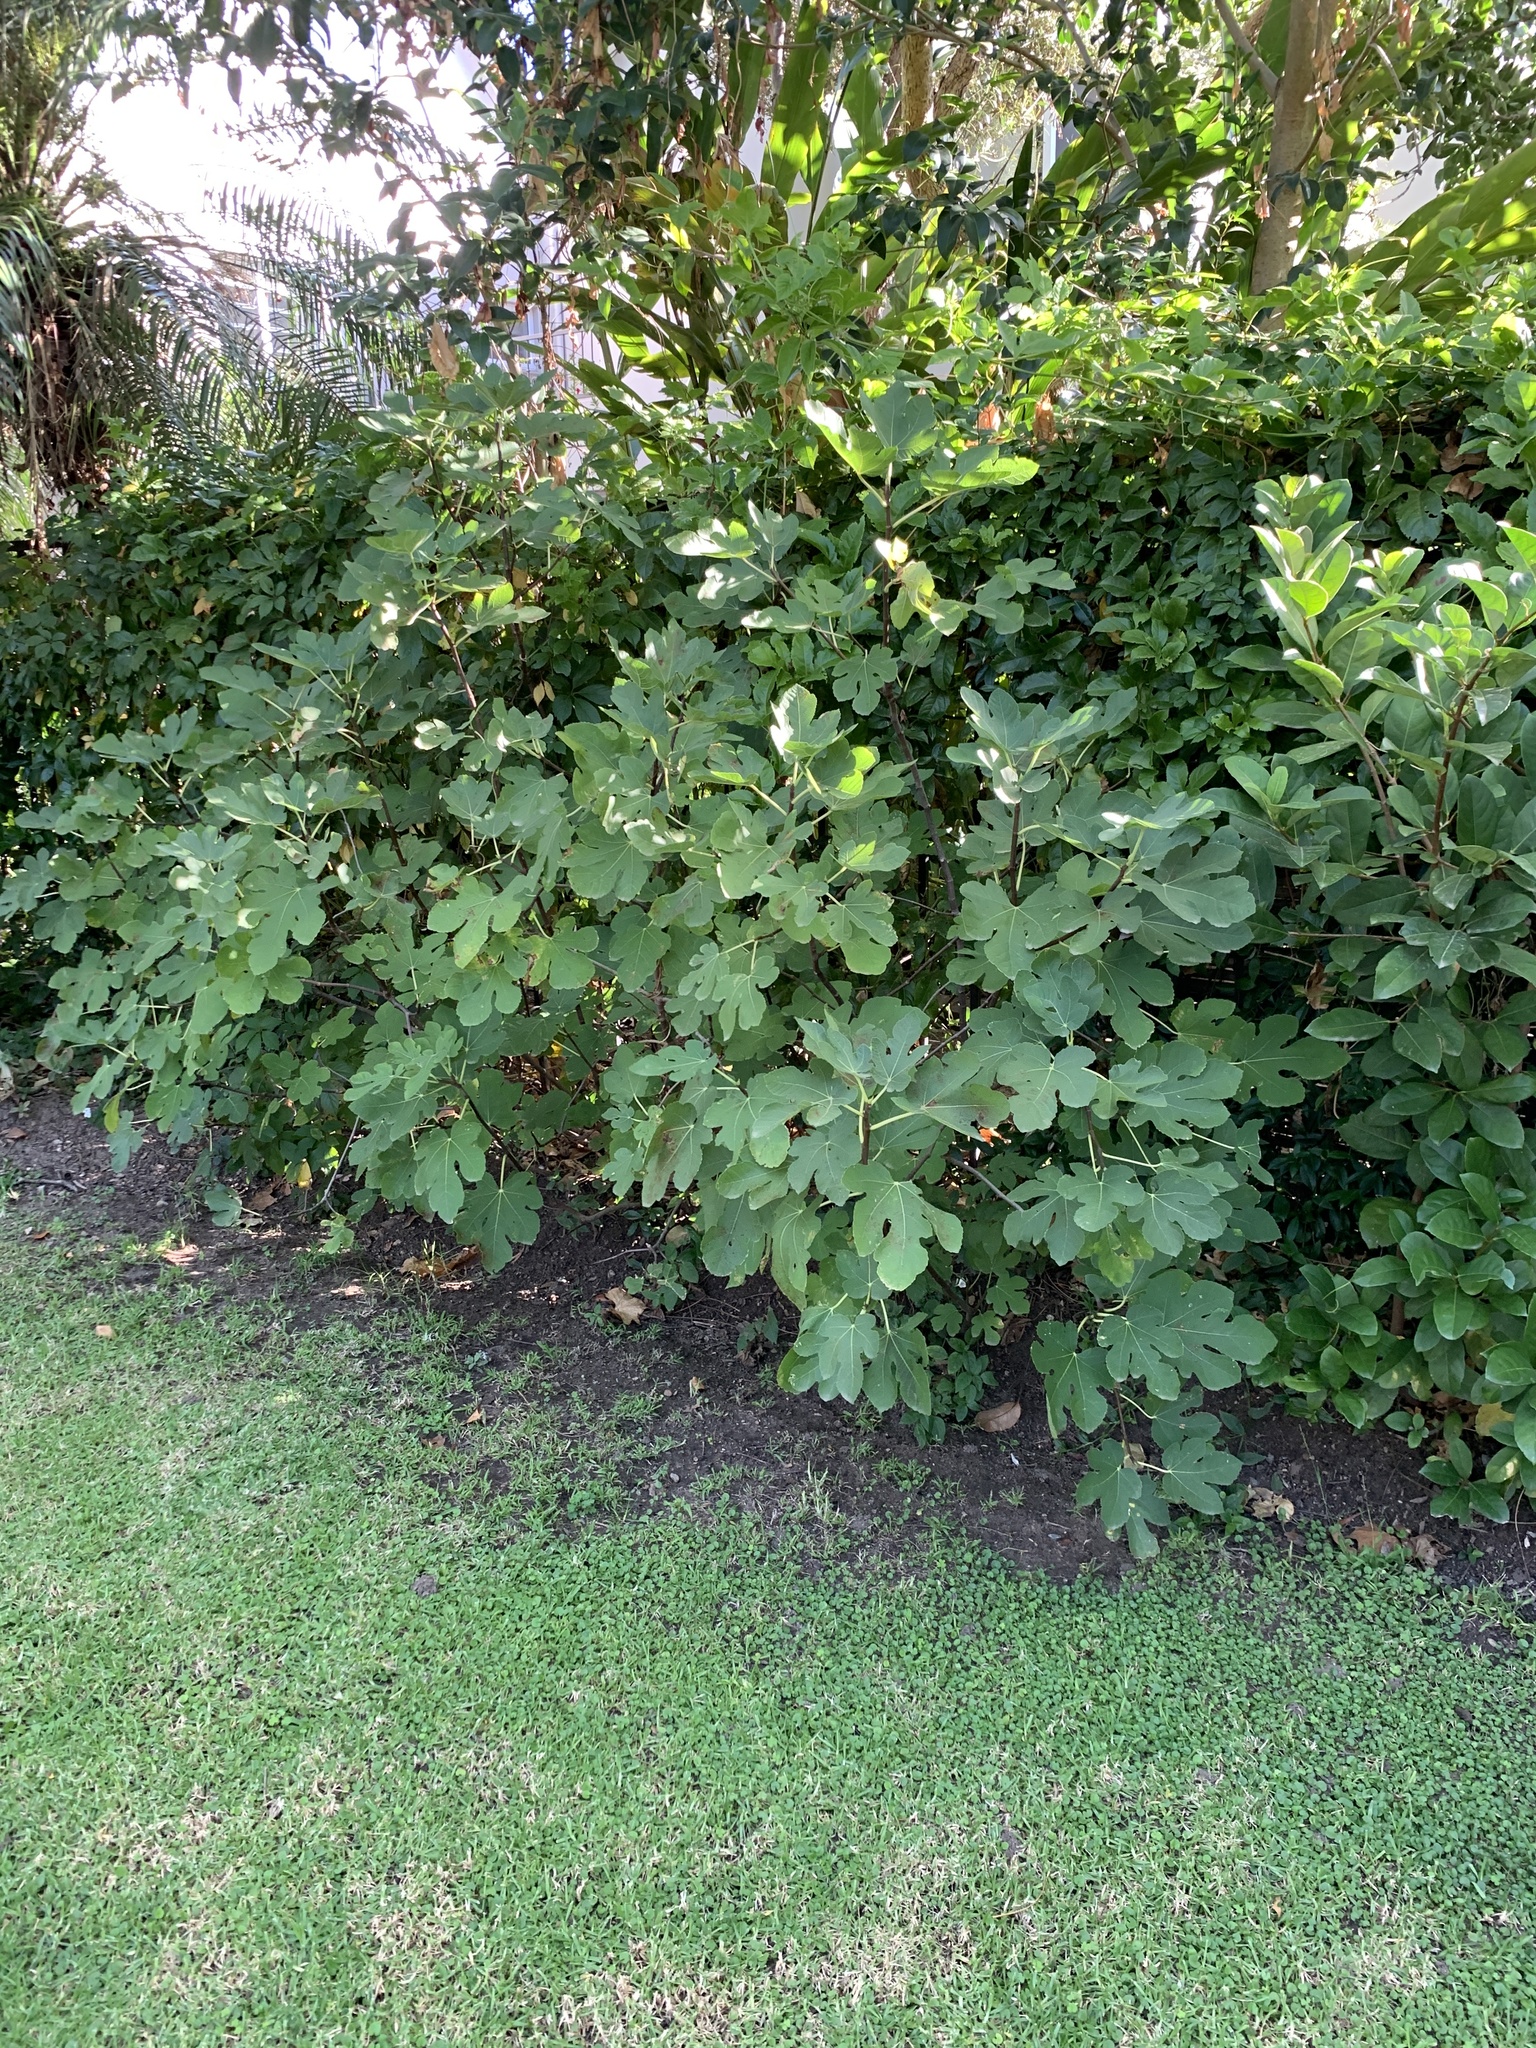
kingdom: Plantae
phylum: Tracheophyta
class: Magnoliopsida
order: Rosales
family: Moraceae
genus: Ficus
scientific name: Ficus carica
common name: Fig
